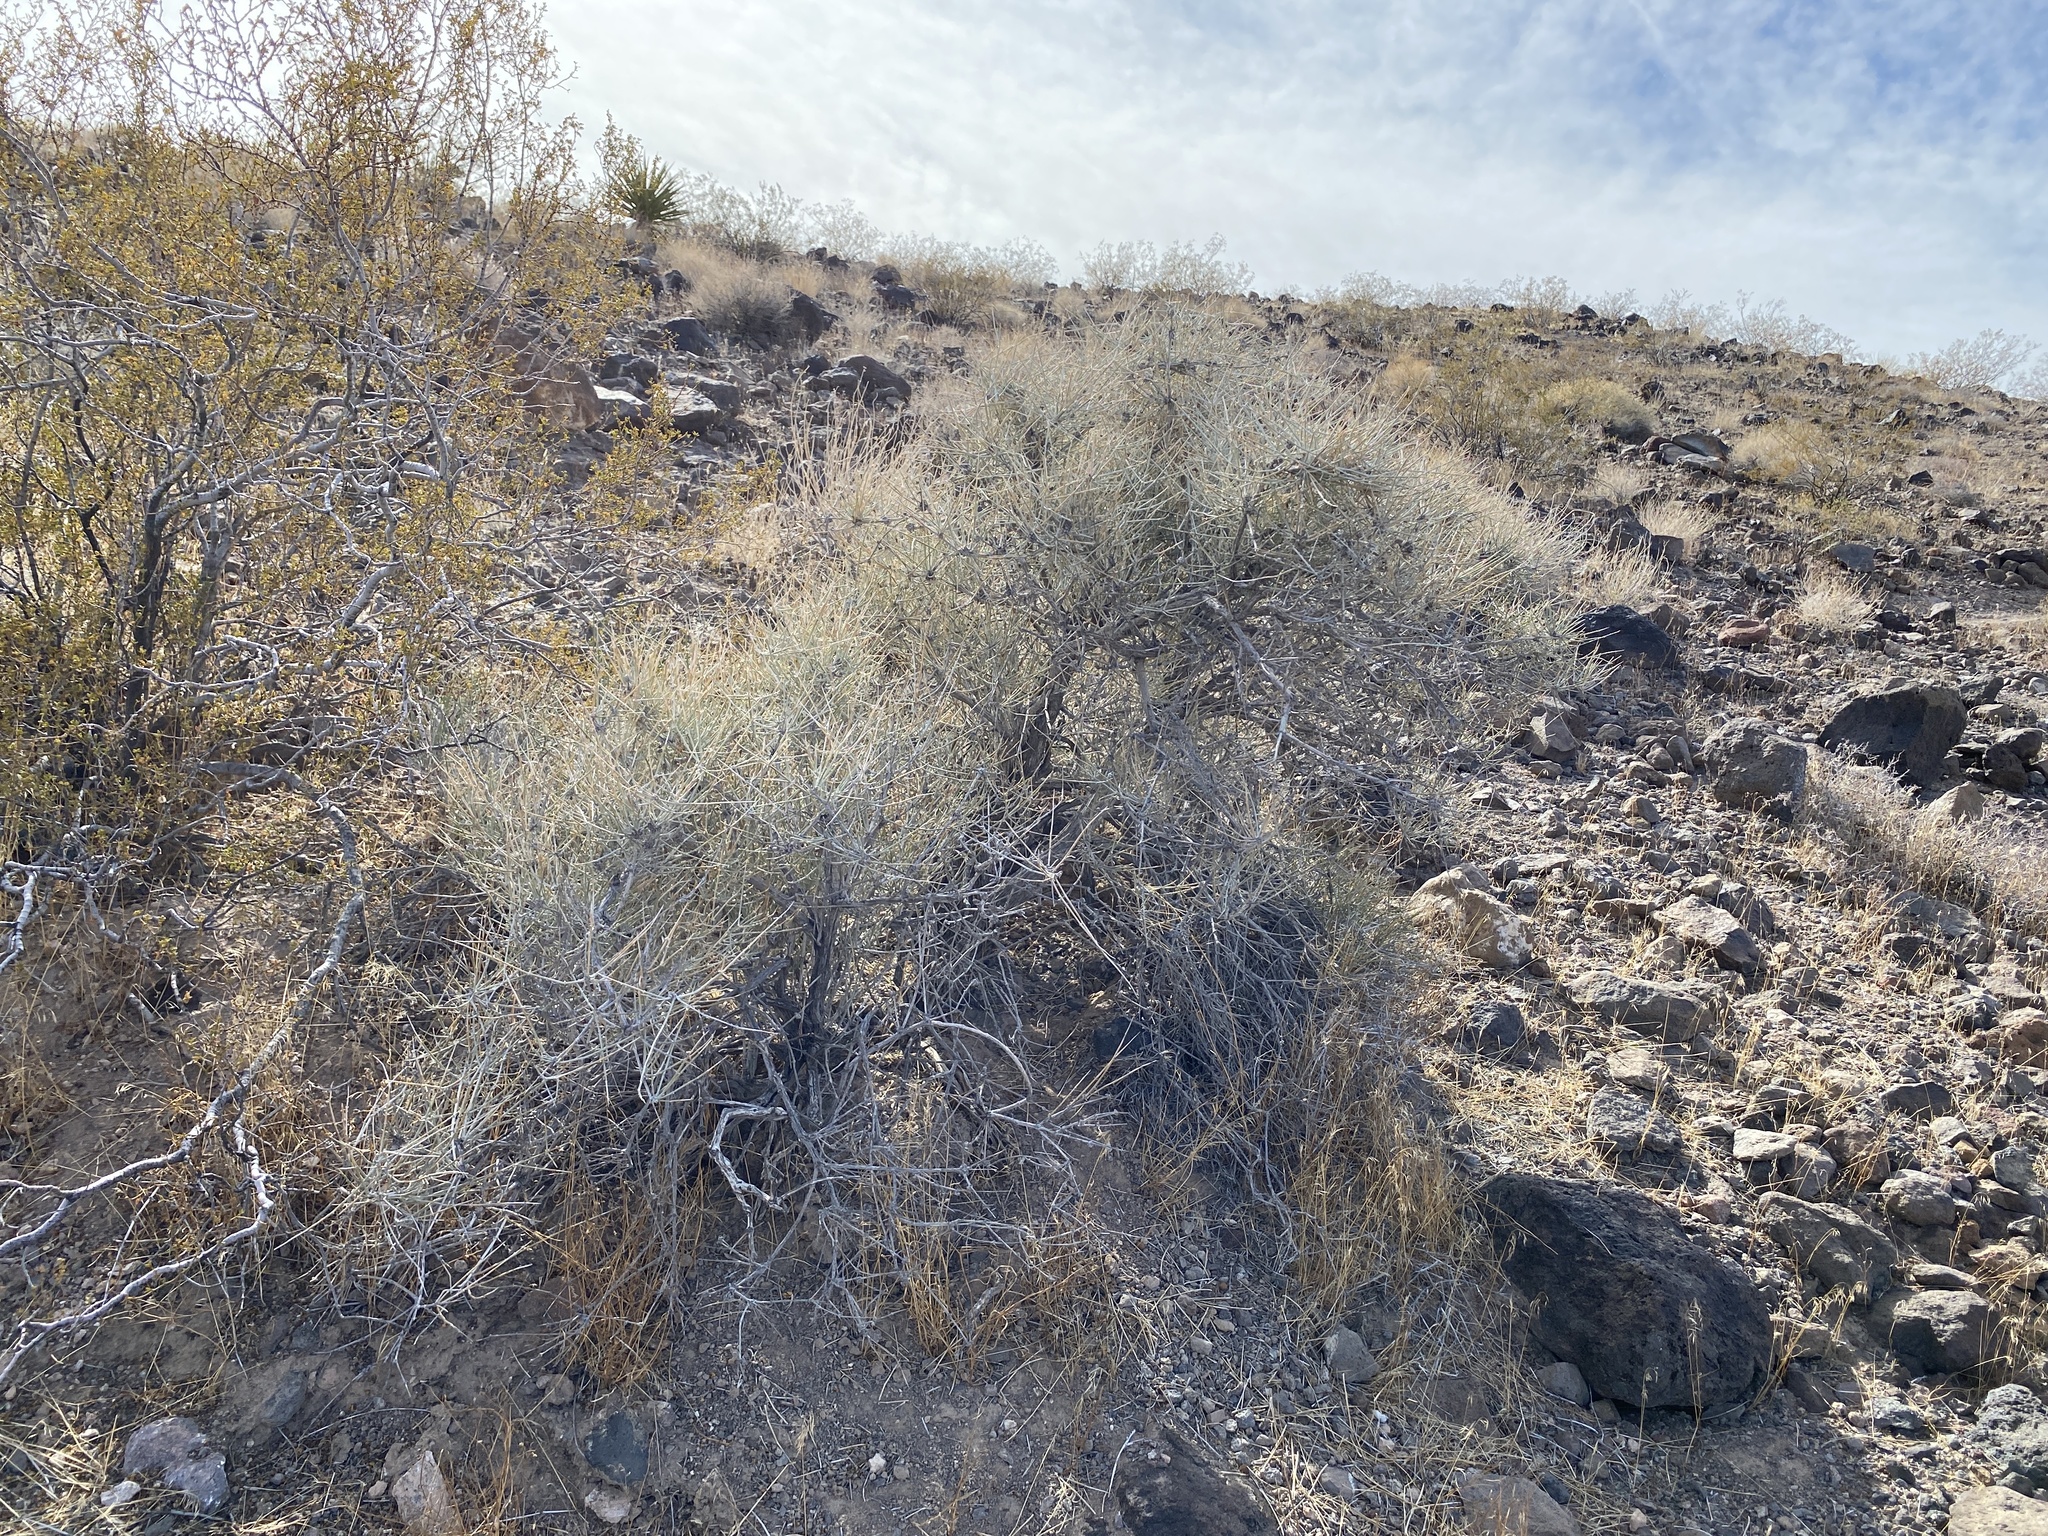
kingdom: Plantae
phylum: Tracheophyta
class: Gnetopsida
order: Ephedrales
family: Ephedraceae
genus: Ephedra
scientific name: Ephedra nevadensis
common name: Gray ephedra
